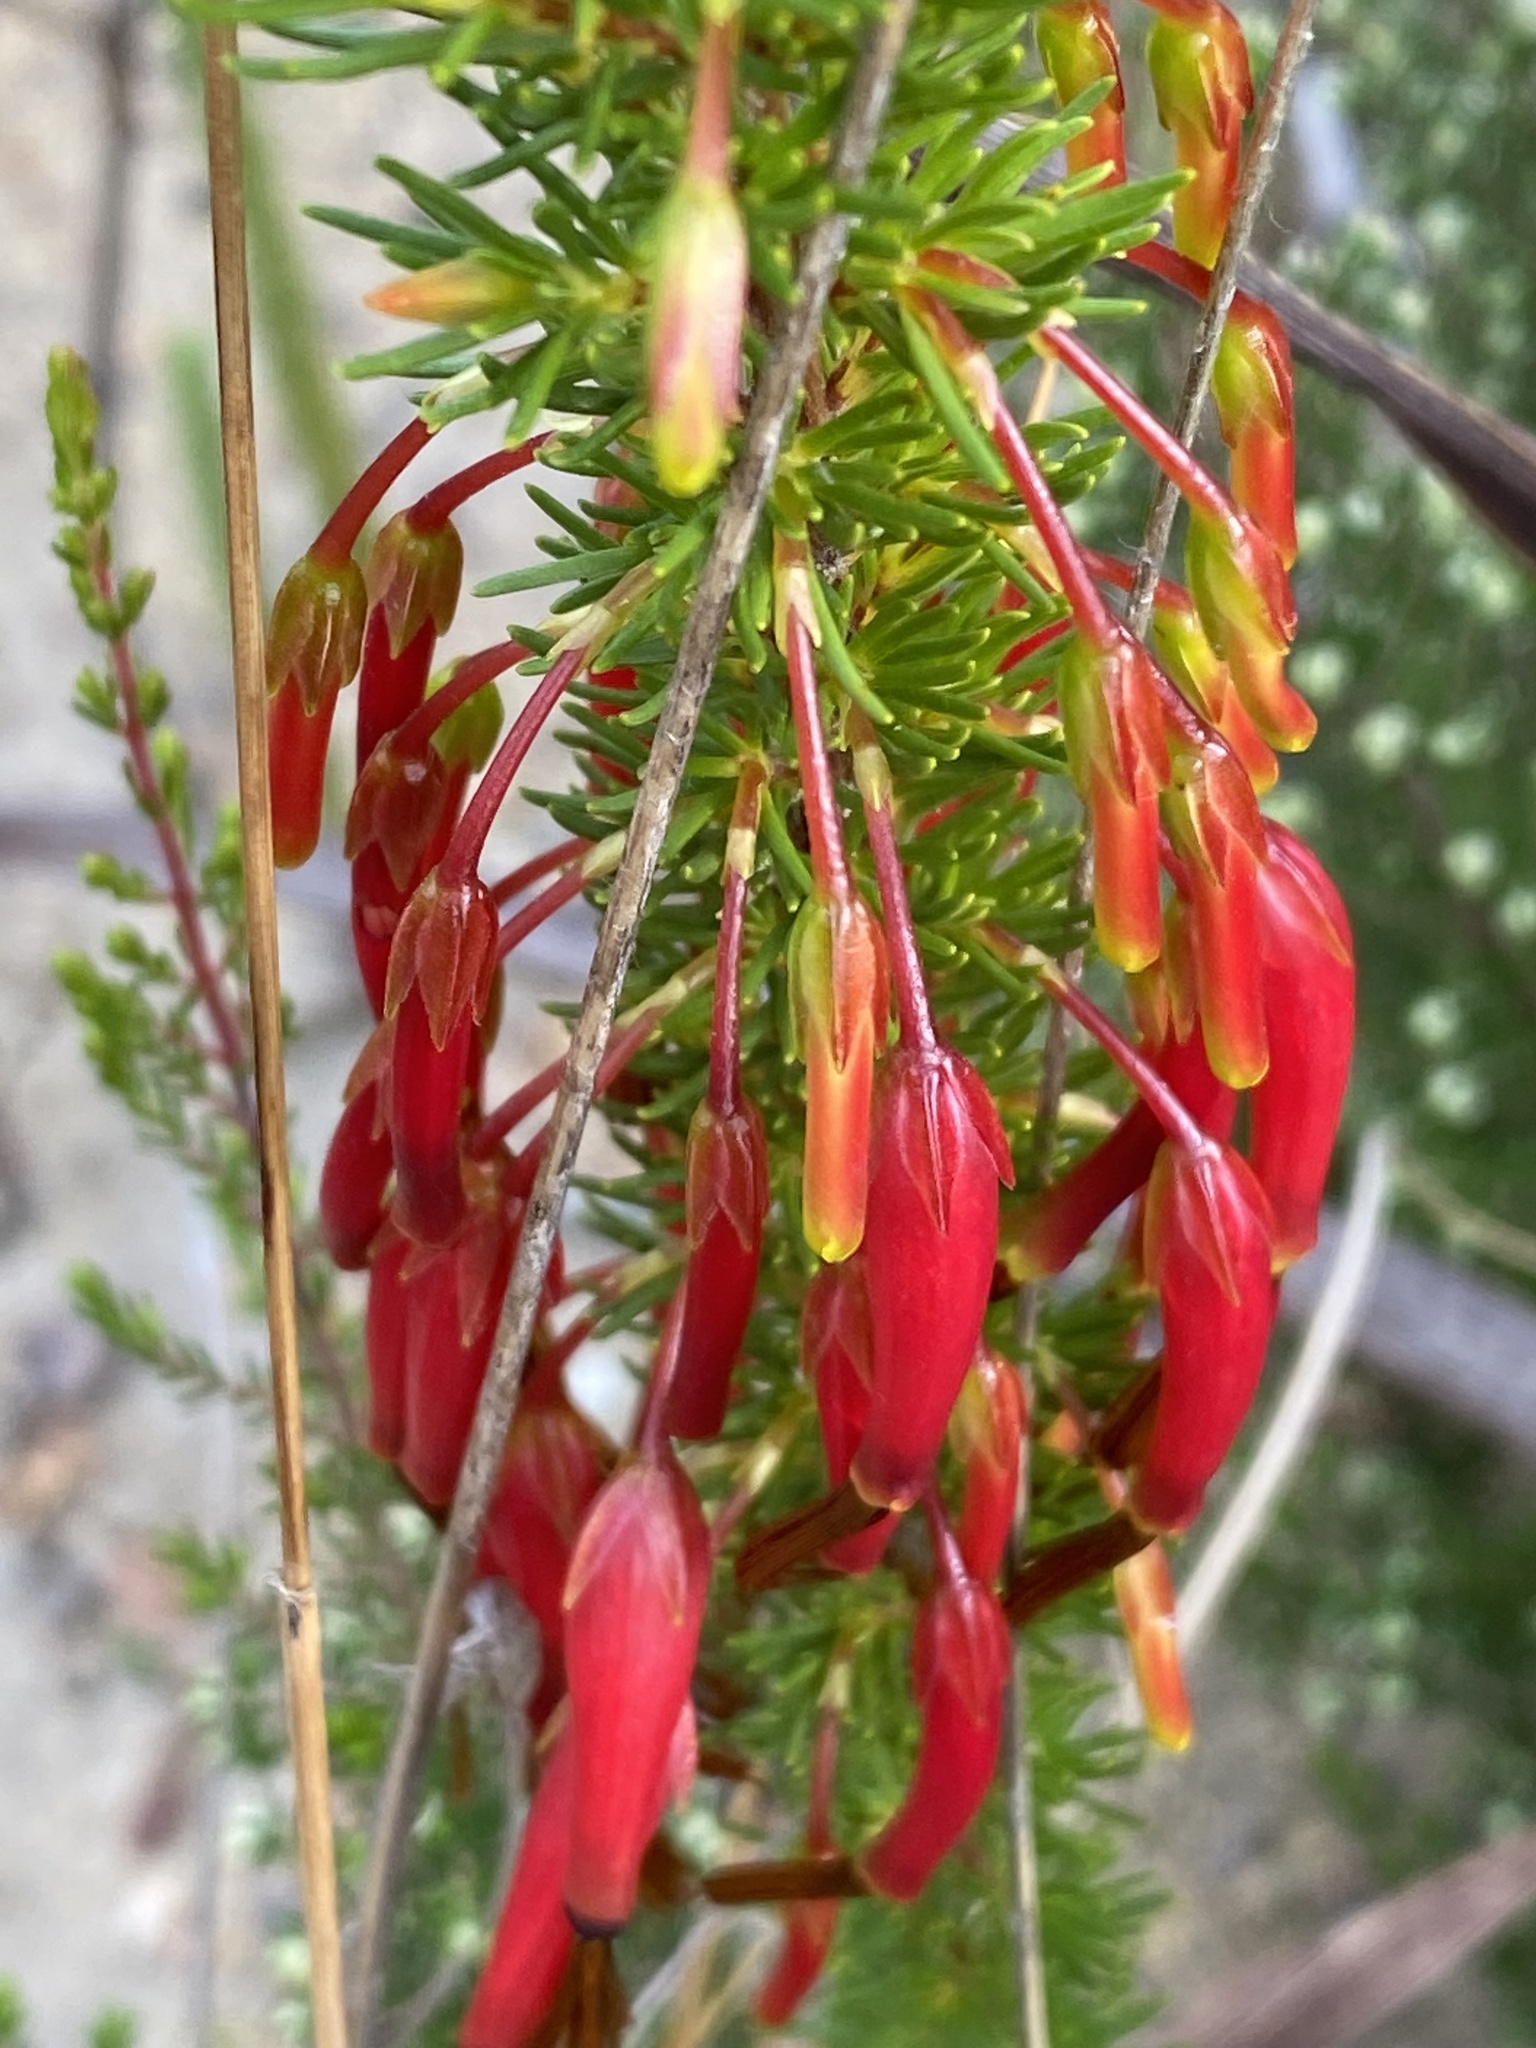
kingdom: Plantae
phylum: Tracheophyta
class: Magnoliopsida
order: Ericales
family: Ericaceae
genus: Erica
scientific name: Erica plukenetii
